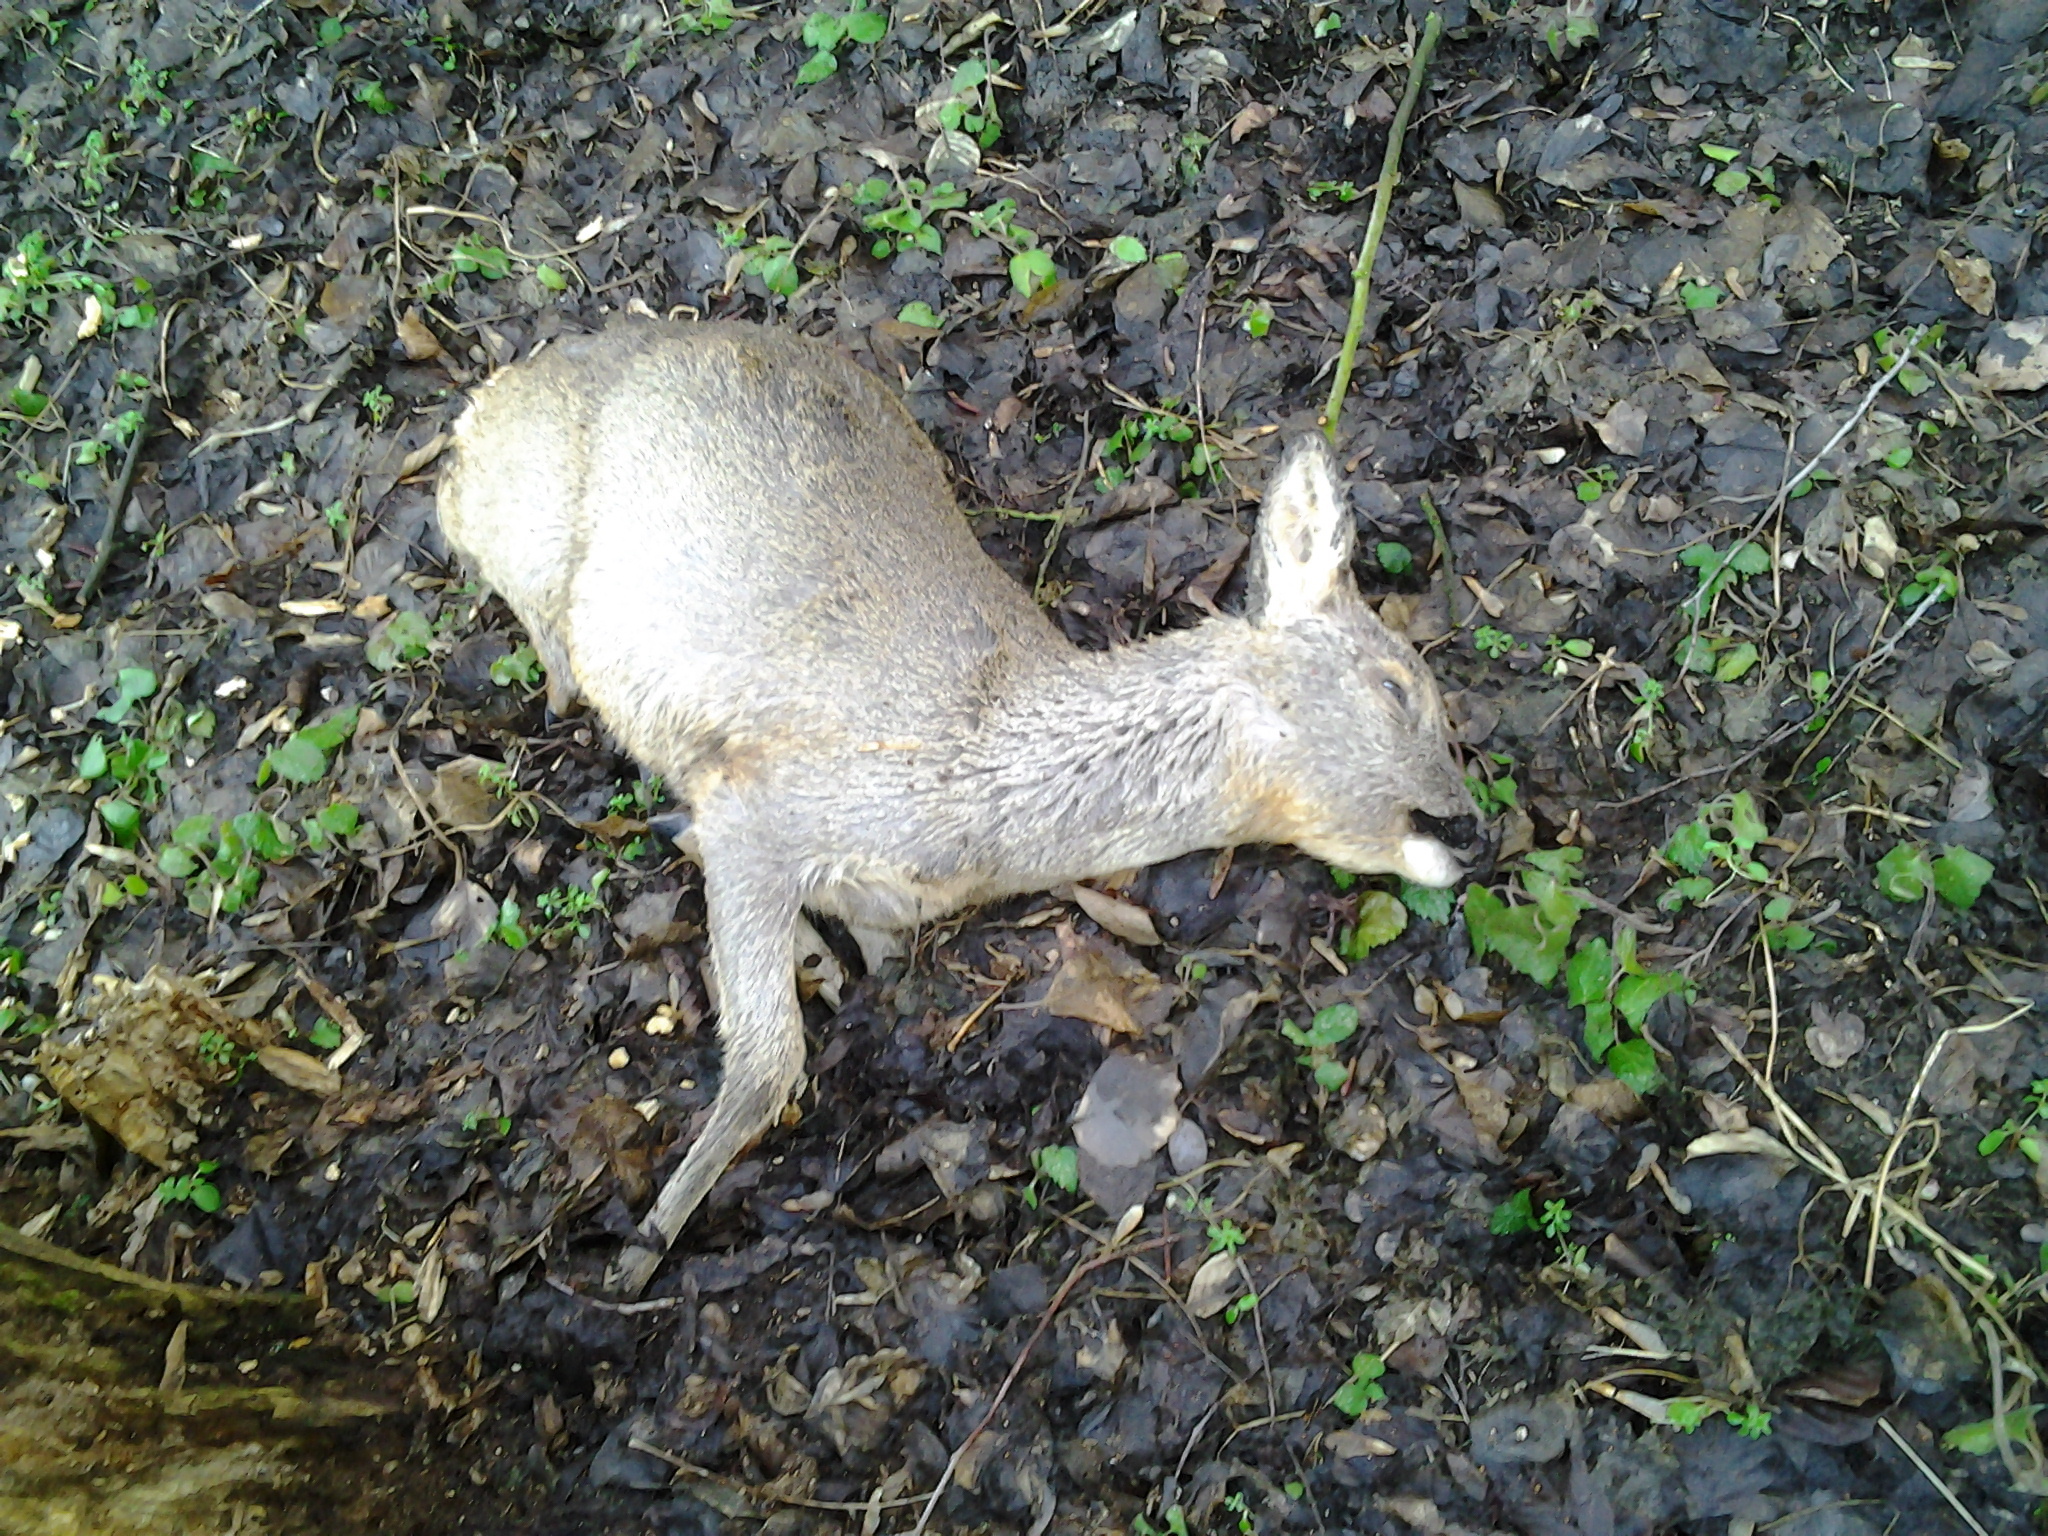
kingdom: Animalia
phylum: Chordata
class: Mammalia
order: Artiodactyla
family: Cervidae
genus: Capreolus
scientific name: Capreolus capreolus
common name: Western roe deer
